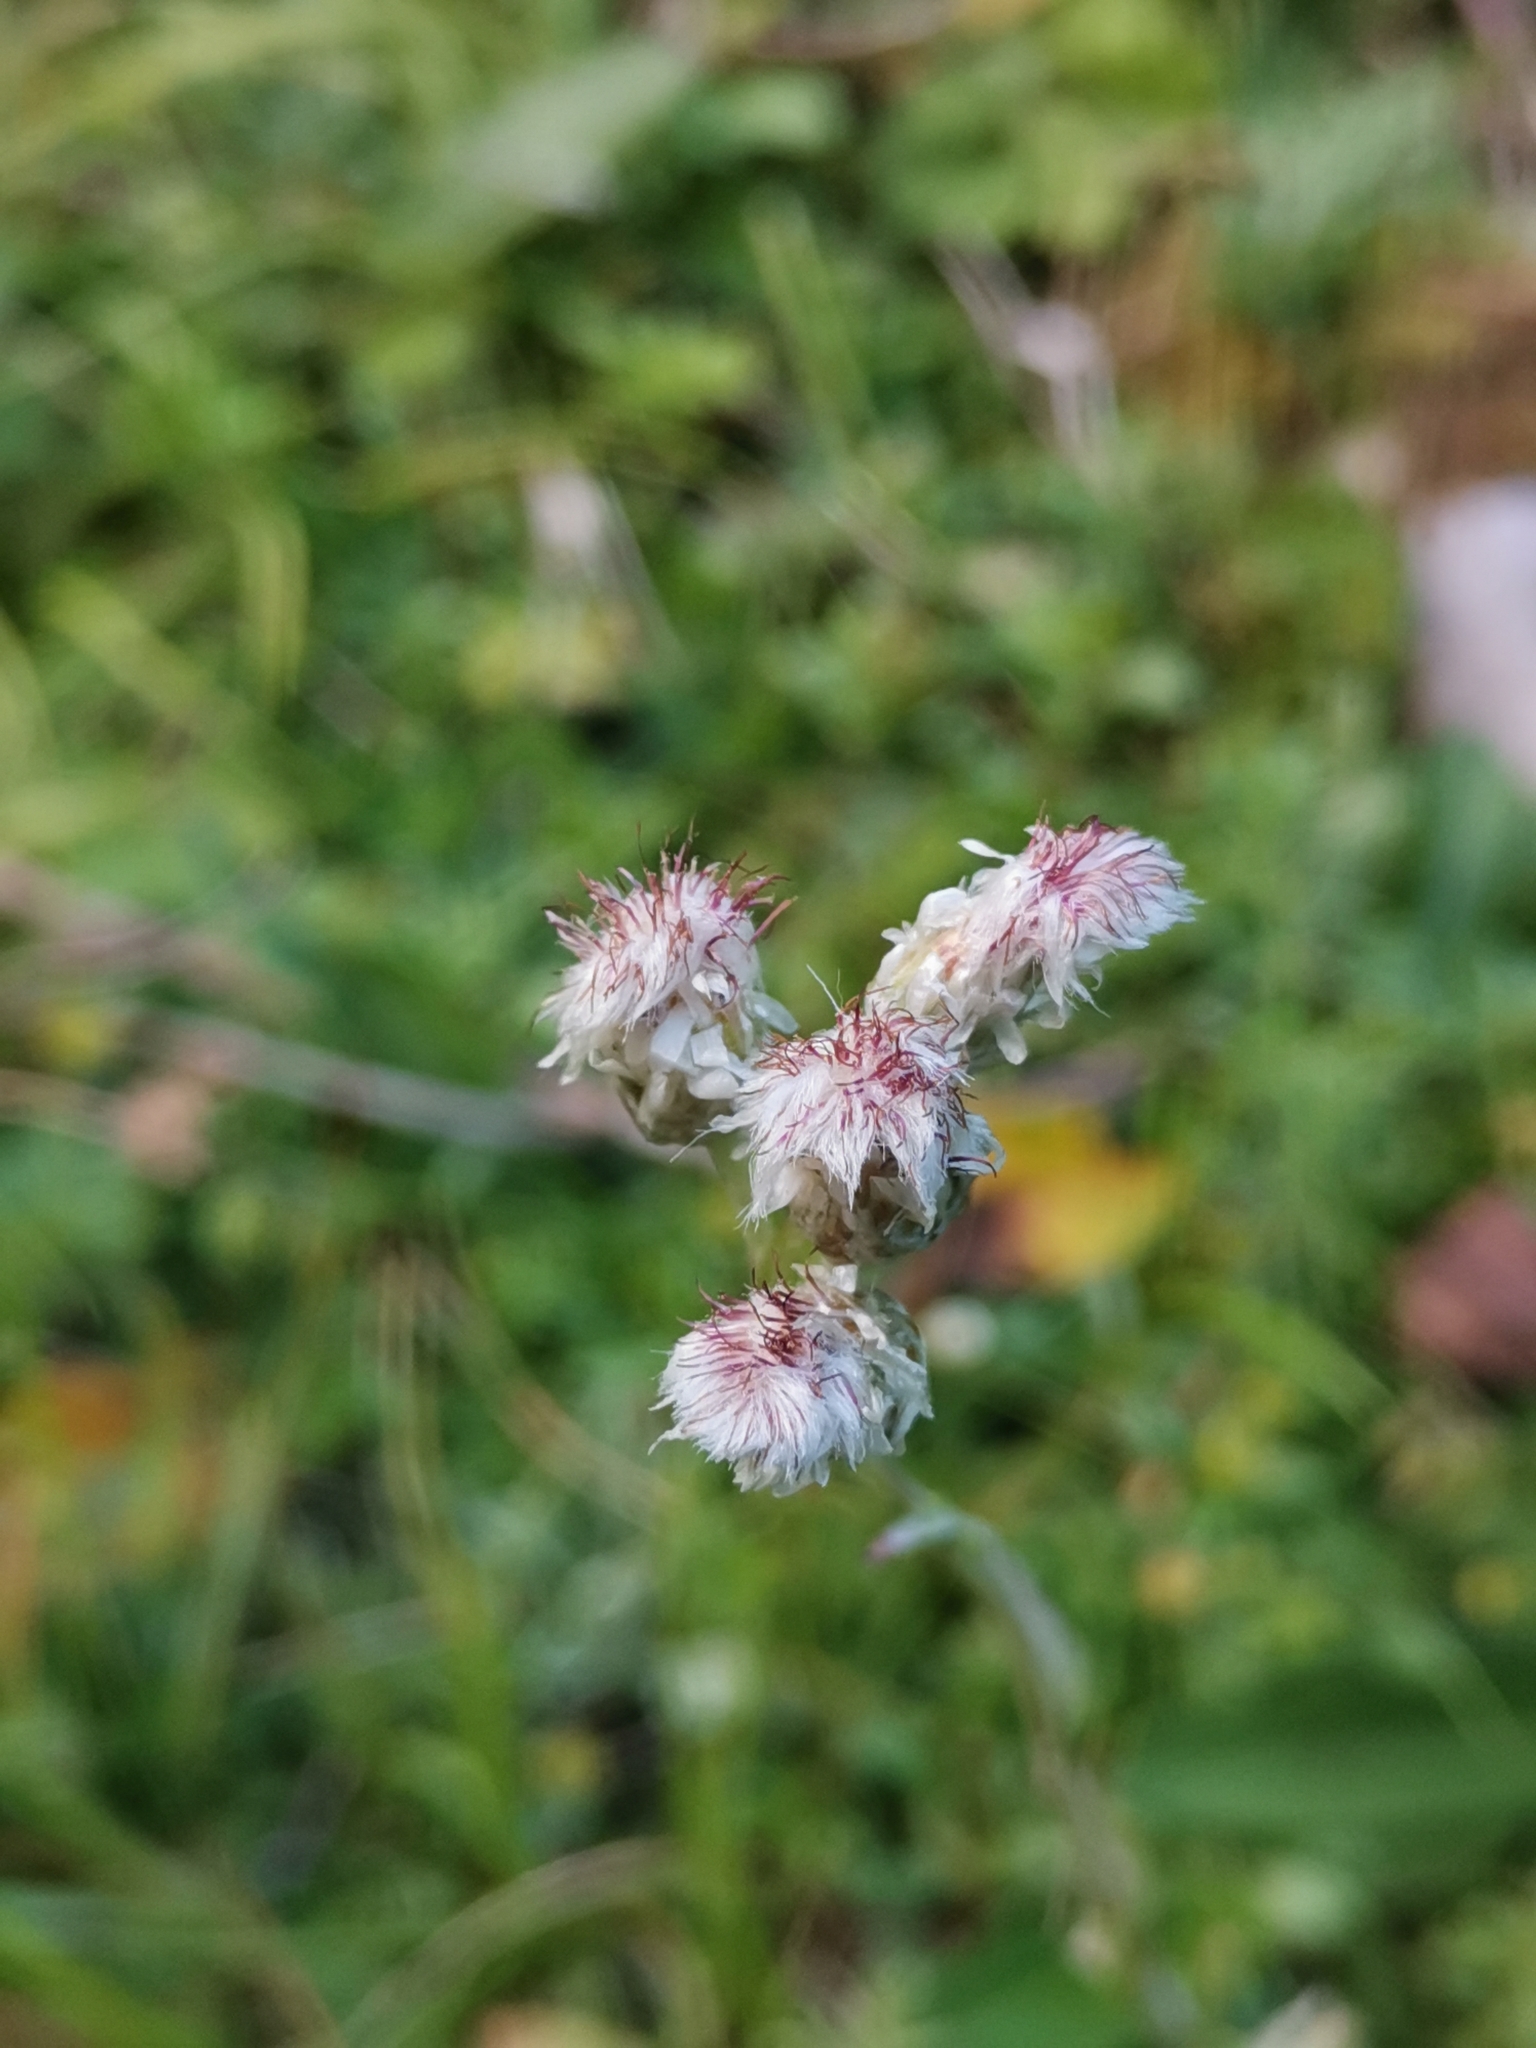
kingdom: Plantae
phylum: Tracheophyta
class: Magnoliopsida
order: Asterales
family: Asteraceae
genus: Antennaria
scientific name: Antennaria dioica
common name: Mountain everlasting
